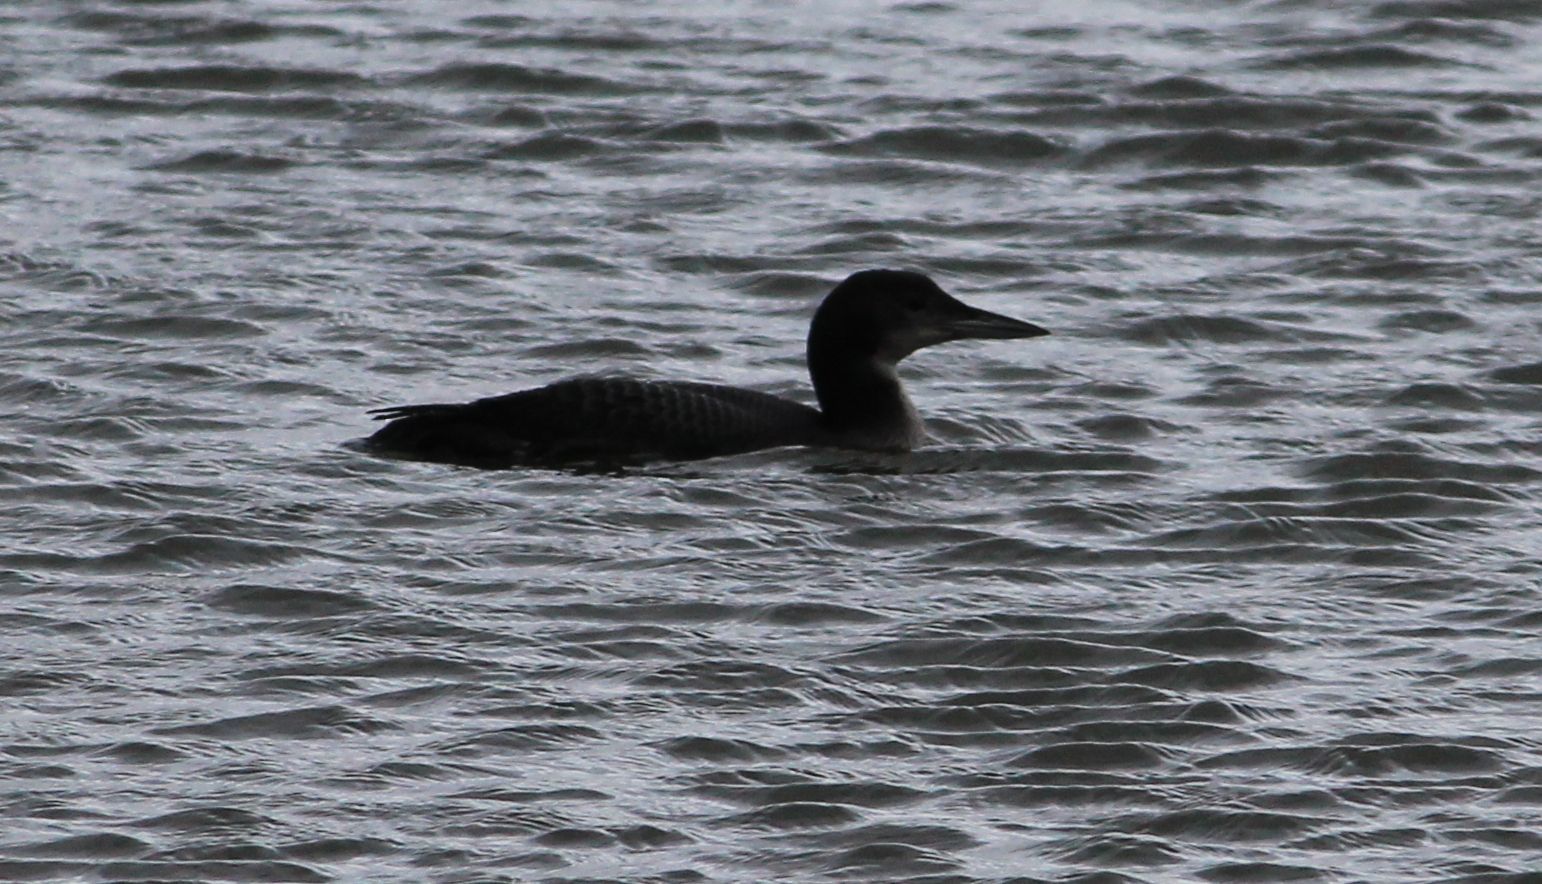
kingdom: Animalia
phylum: Chordata
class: Aves
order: Gaviiformes
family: Gaviidae
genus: Gavia
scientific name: Gavia immer
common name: Common loon
